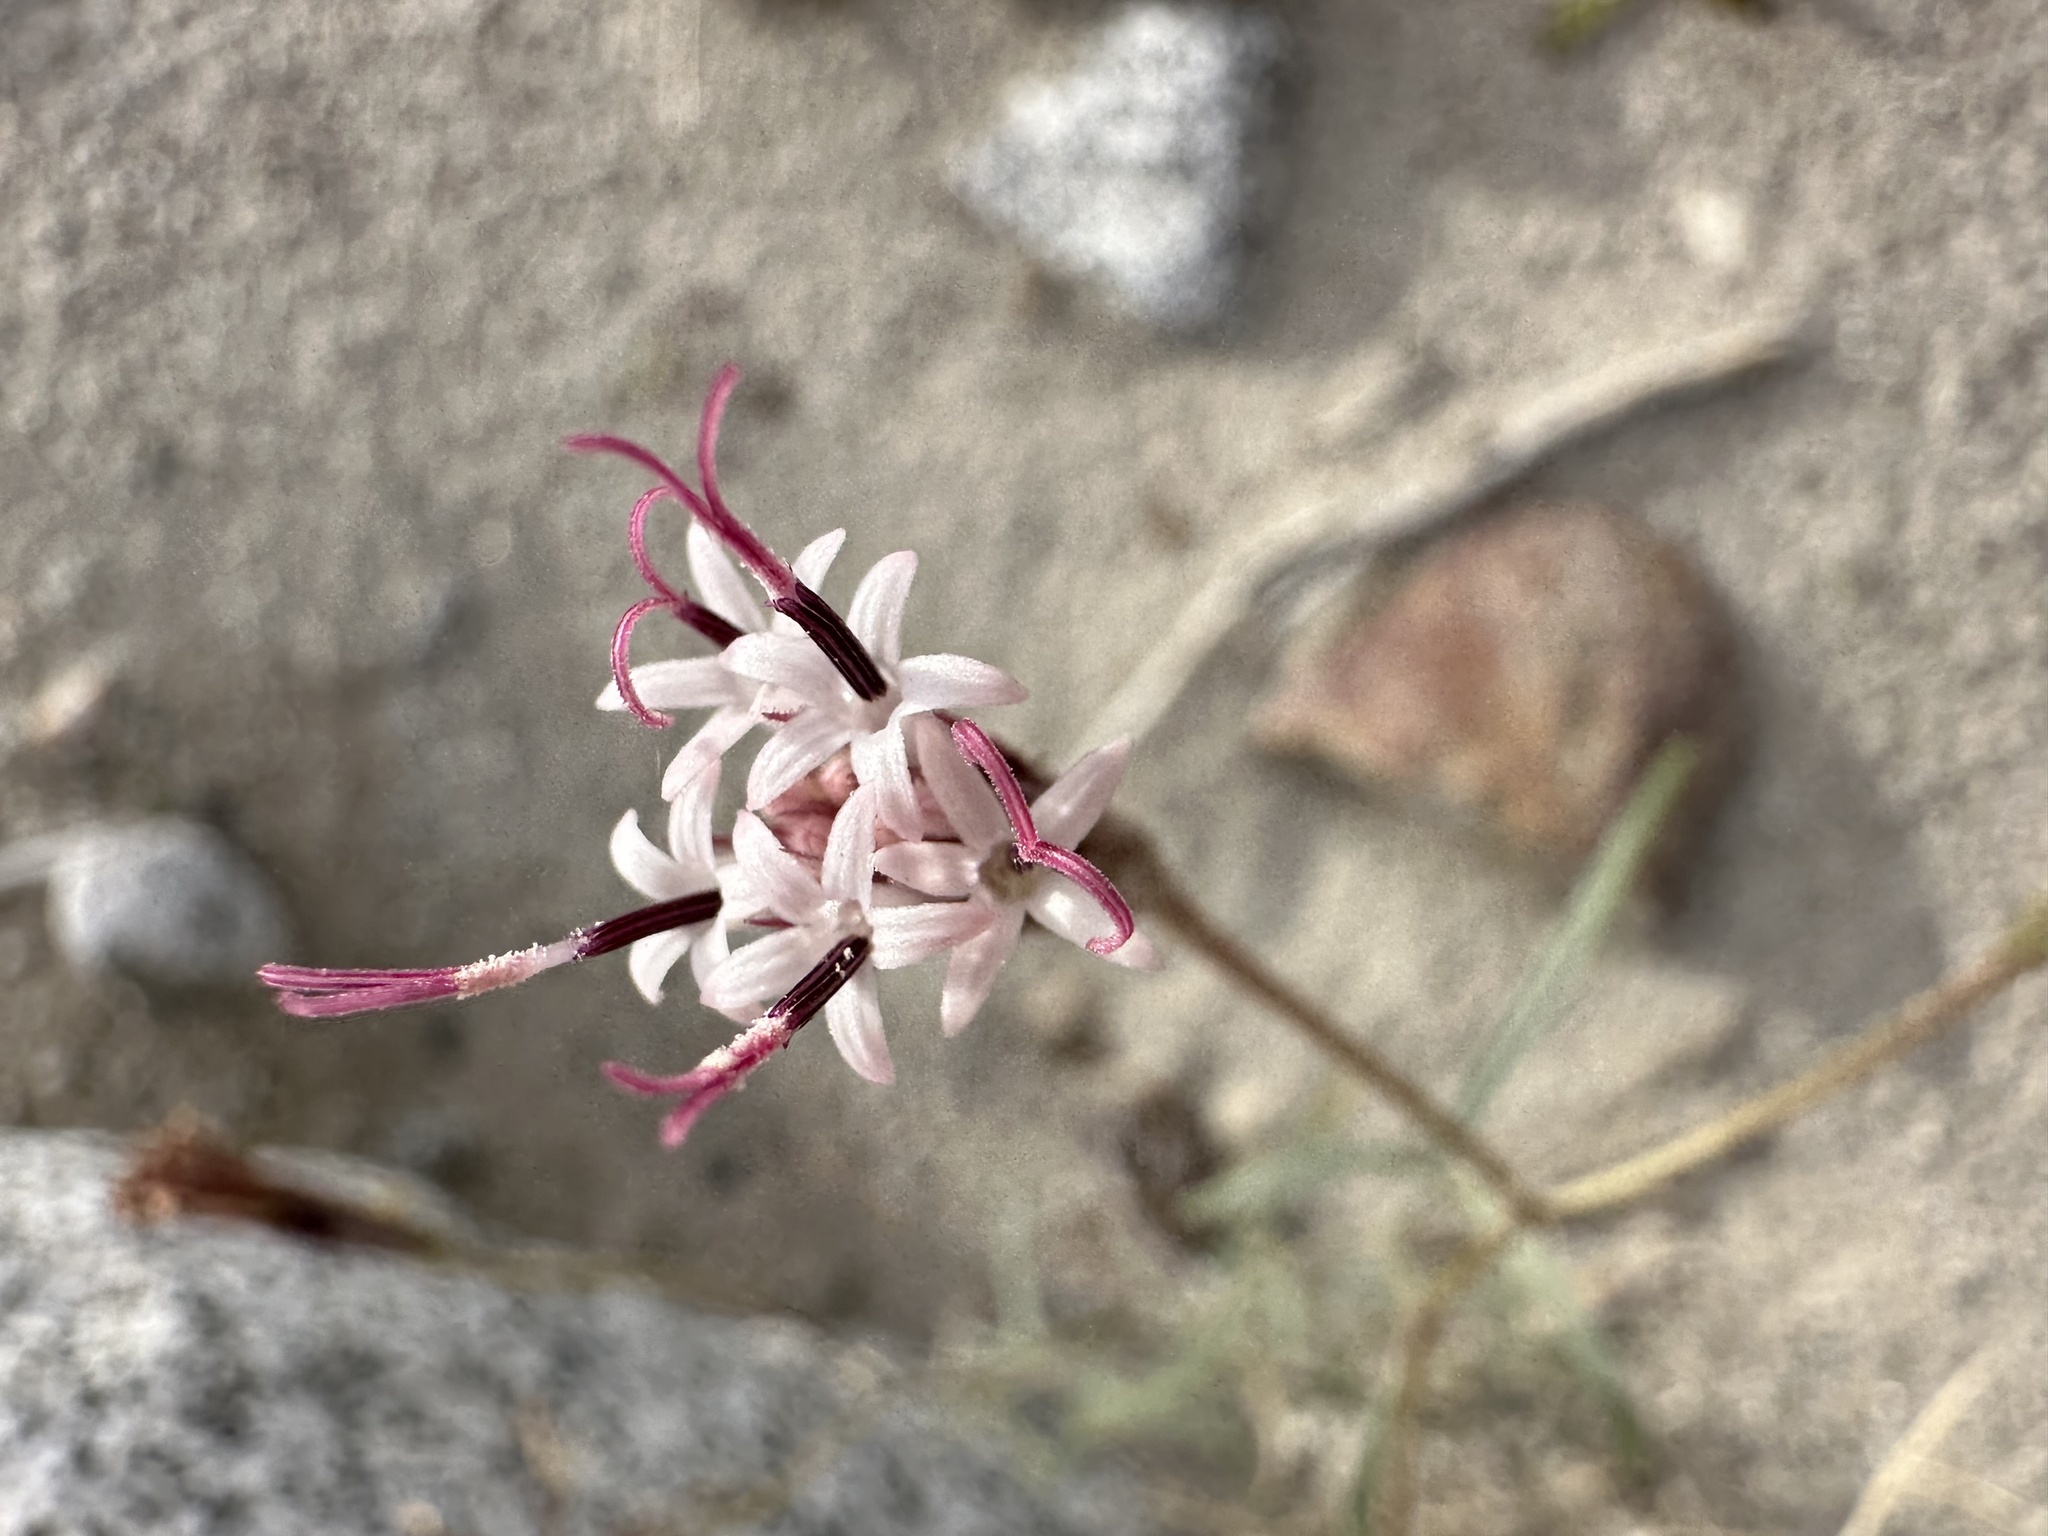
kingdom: Plantae
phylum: Tracheophyta
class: Magnoliopsida
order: Asterales
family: Asteraceae
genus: Palafoxia
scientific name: Palafoxia arida
